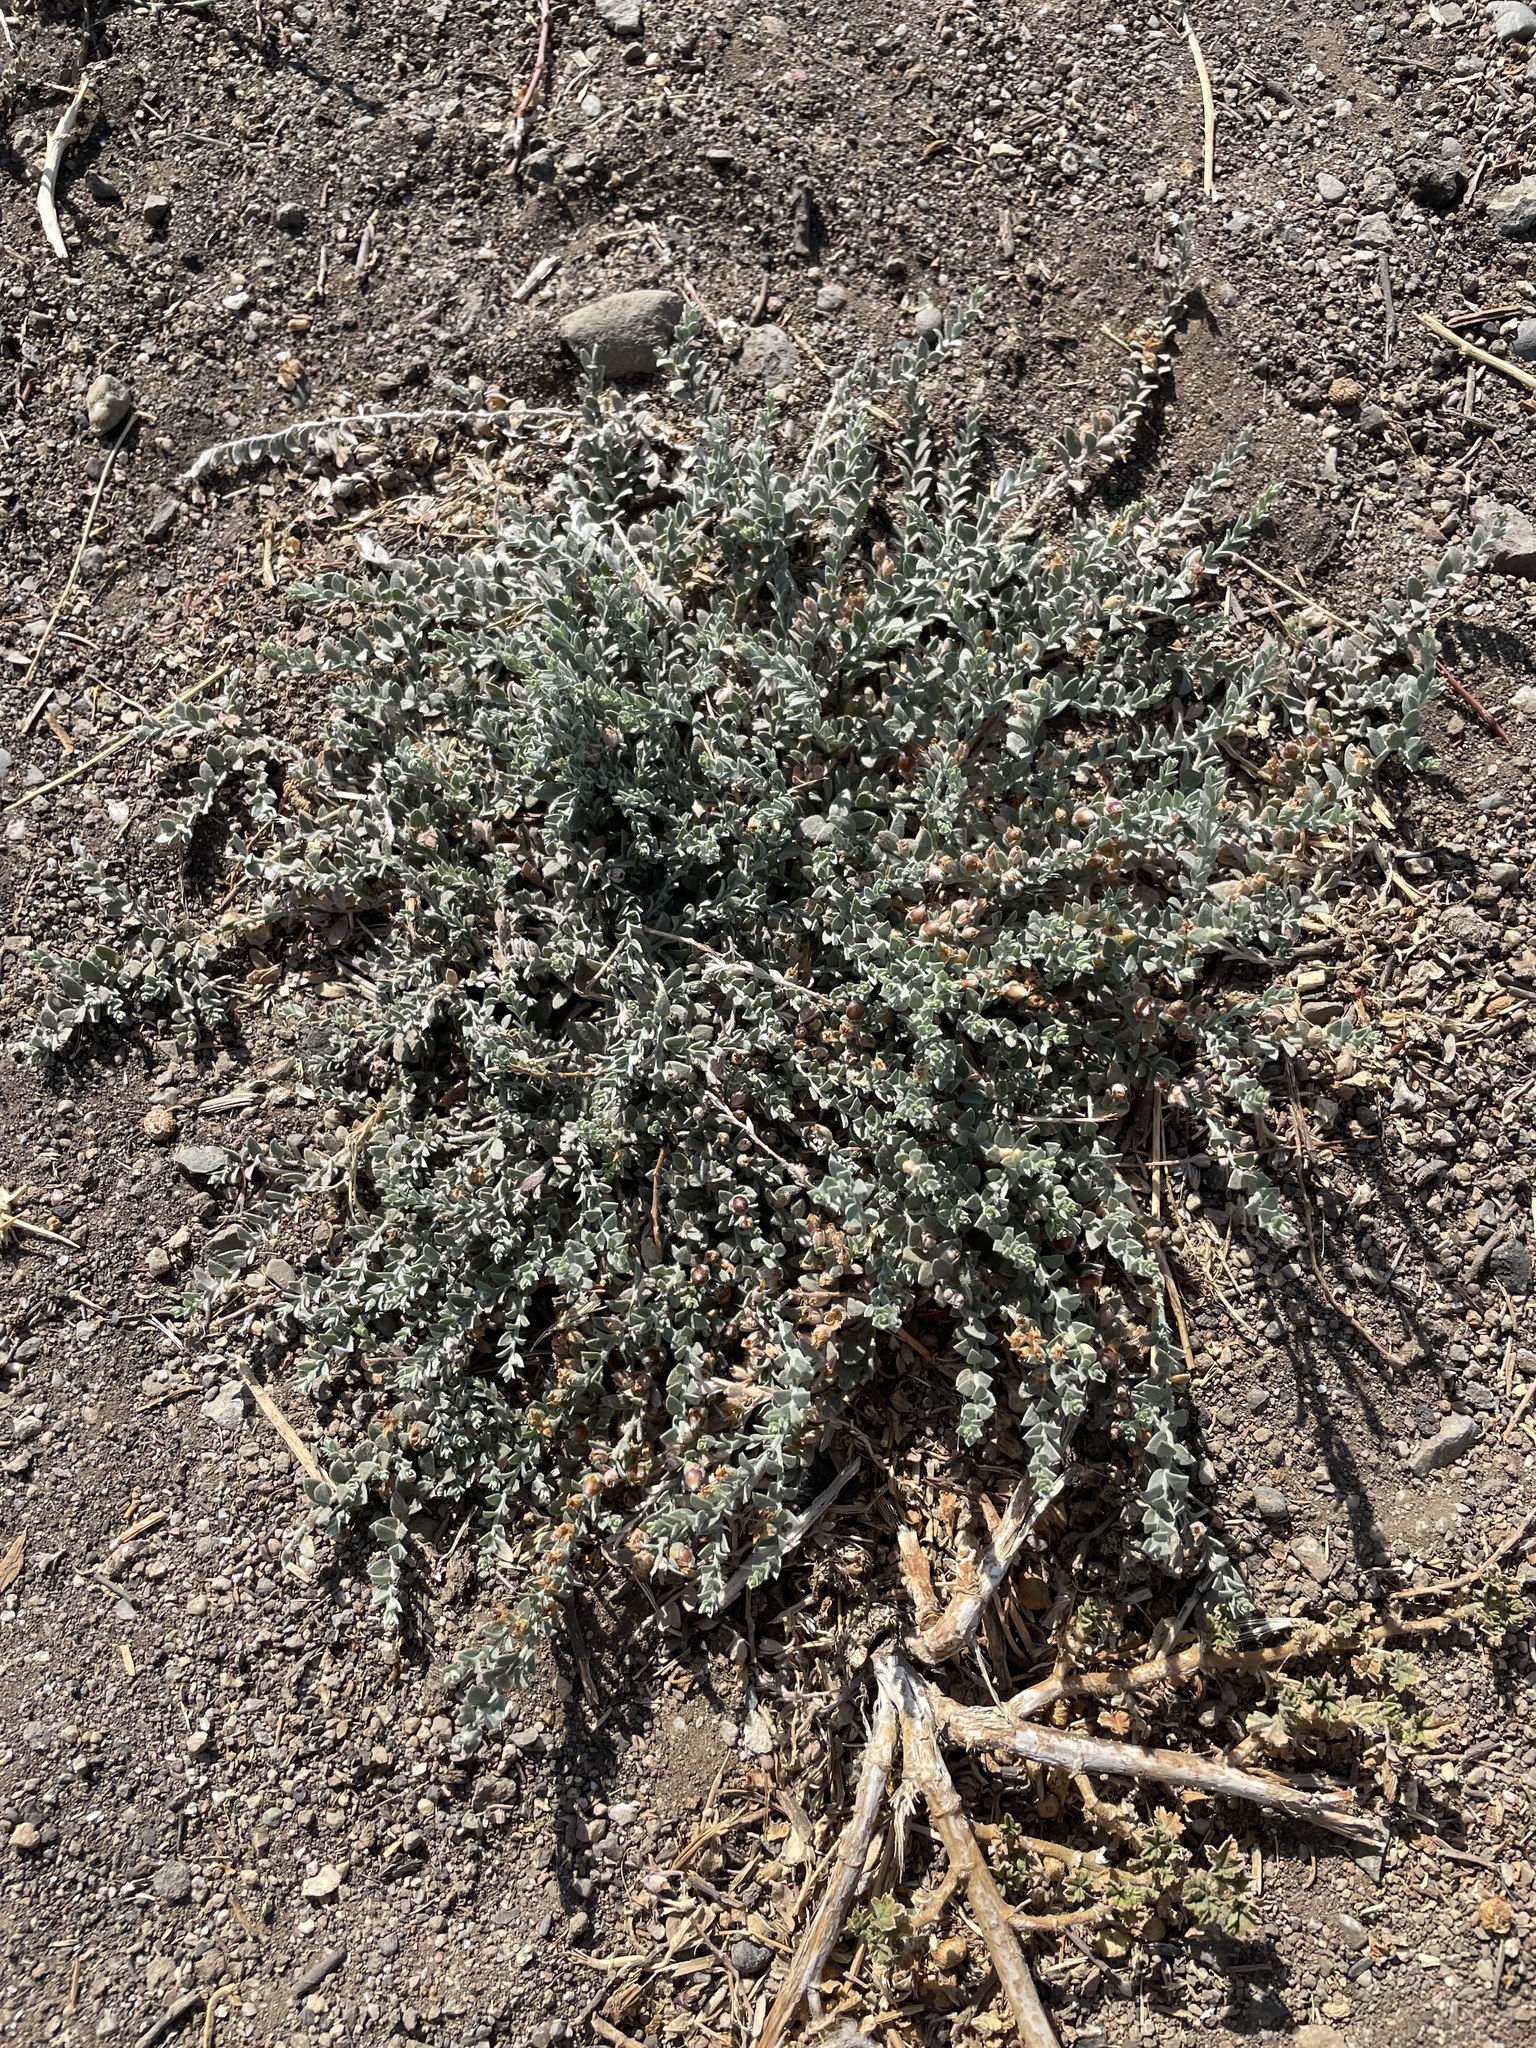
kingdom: Plantae
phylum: Tracheophyta
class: Magnoliopsida
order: Solanales
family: Convolvulaceae
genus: Cressa
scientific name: Cressa truxillensis
